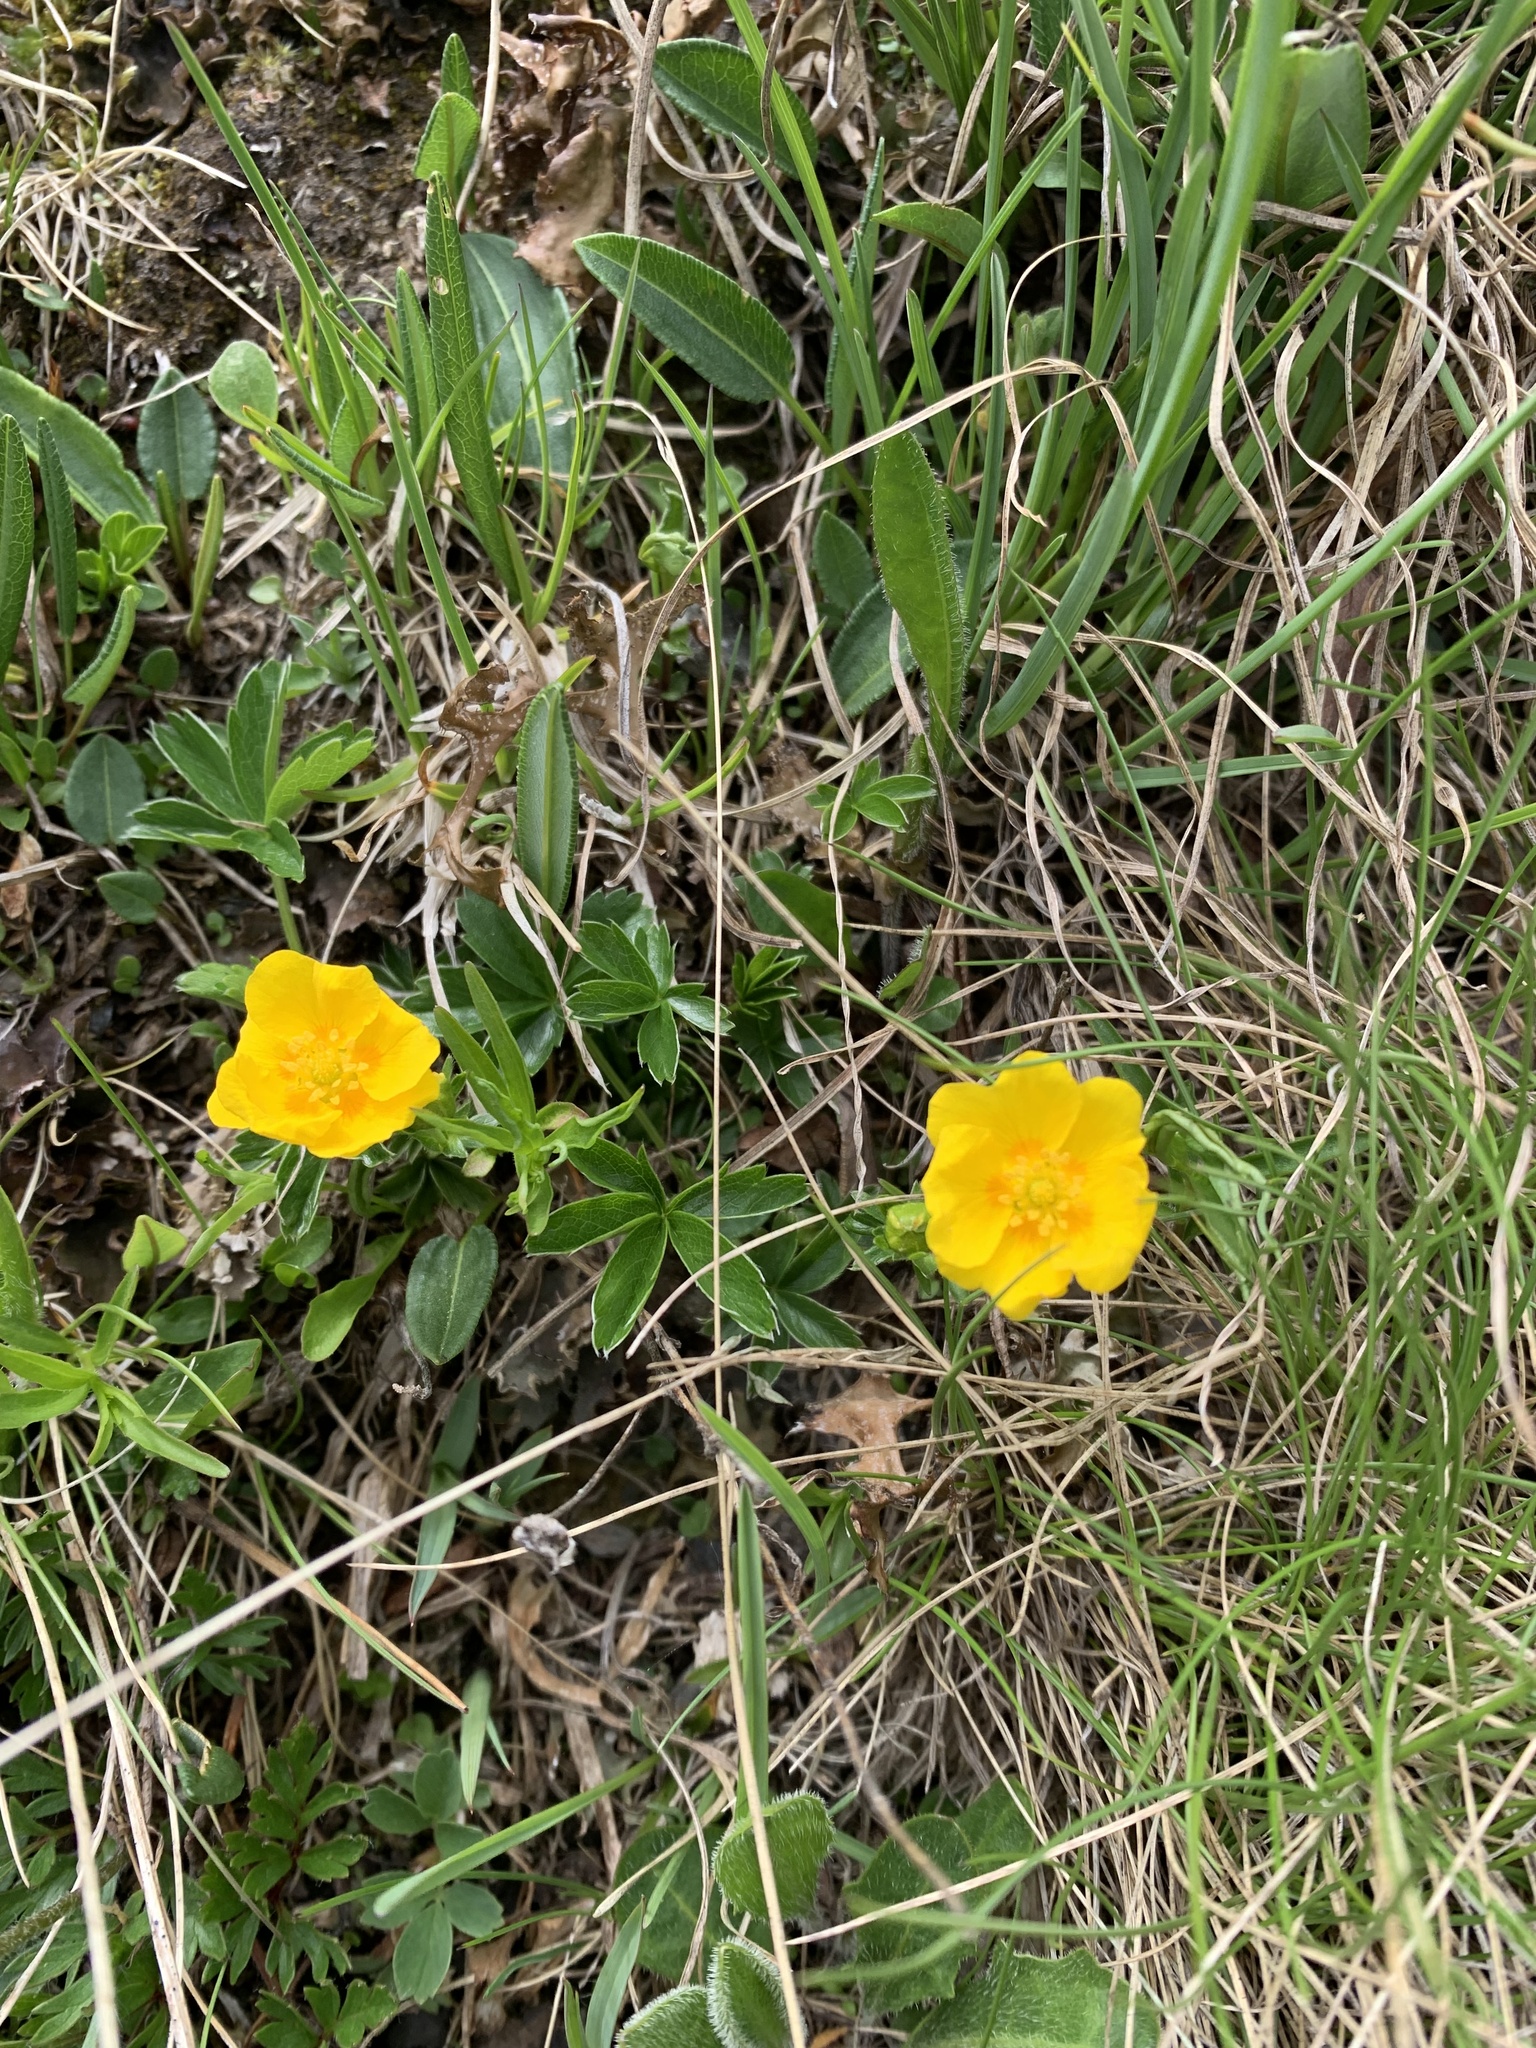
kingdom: Plantae
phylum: Tracheophyta
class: Magnoliopsida
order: Rosales
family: Rosaceae
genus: Geum
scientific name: Geum montanum
